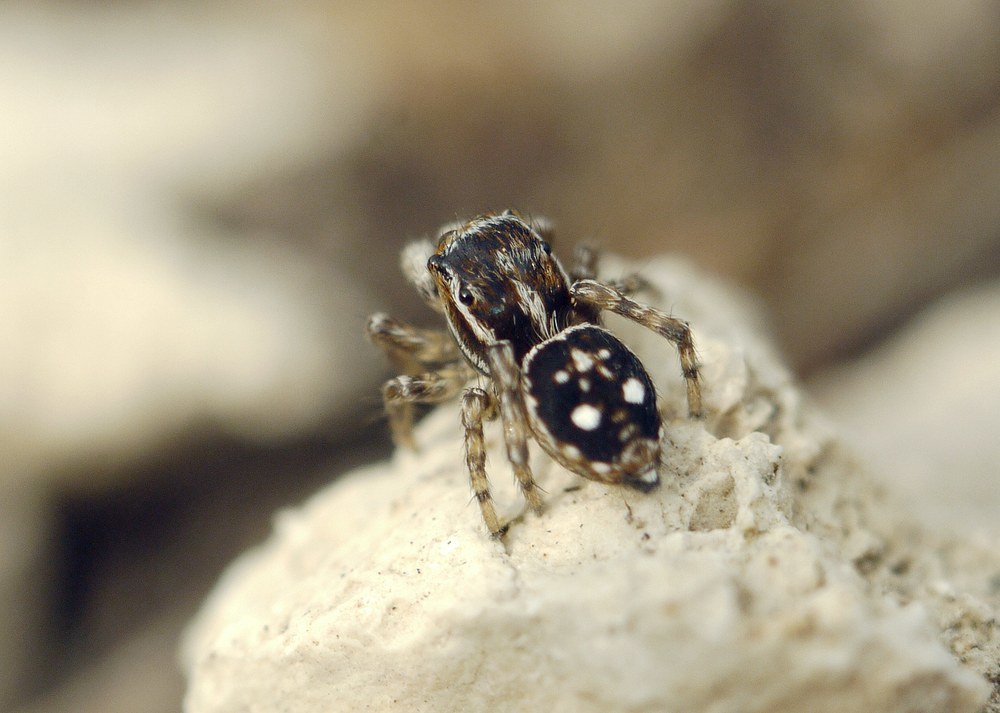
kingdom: Animalia
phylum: Arthropoda
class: Arachnida
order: Araneae
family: Salticidae
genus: Attulus
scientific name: Attulus zimmermanni
